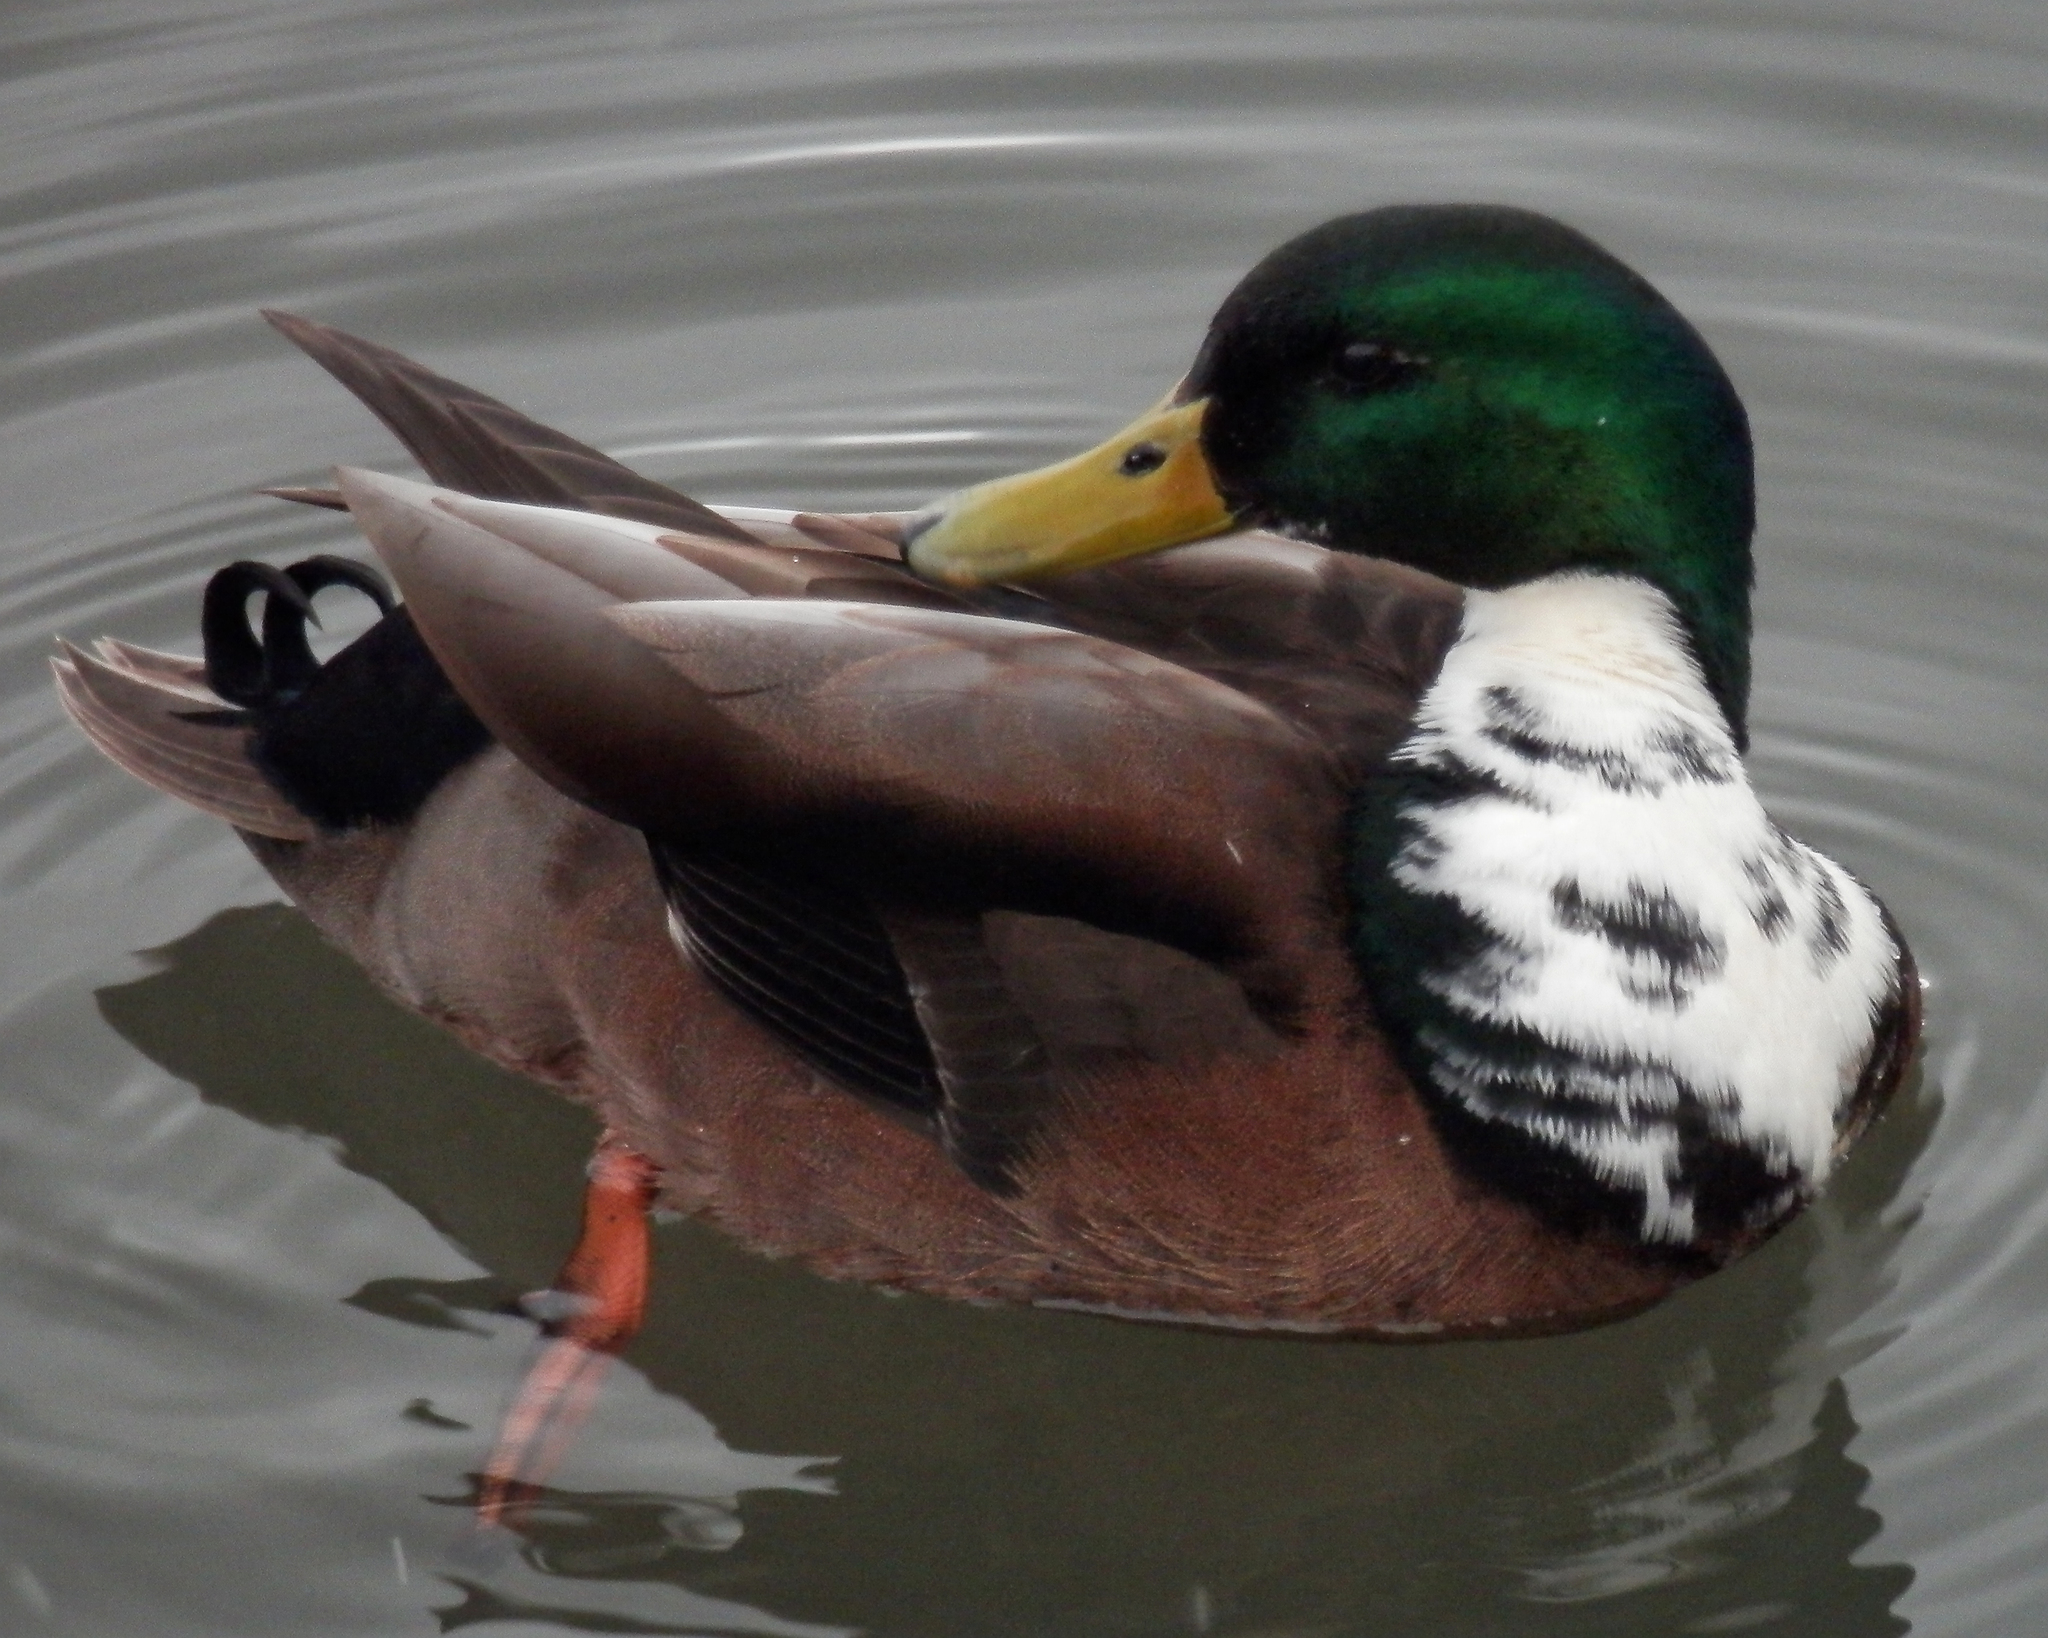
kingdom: Animalia
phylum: Chordata
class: Aves
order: Anseriformes
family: Anatidae
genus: Anas
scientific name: Anas platyrhynchos
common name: Mallard
